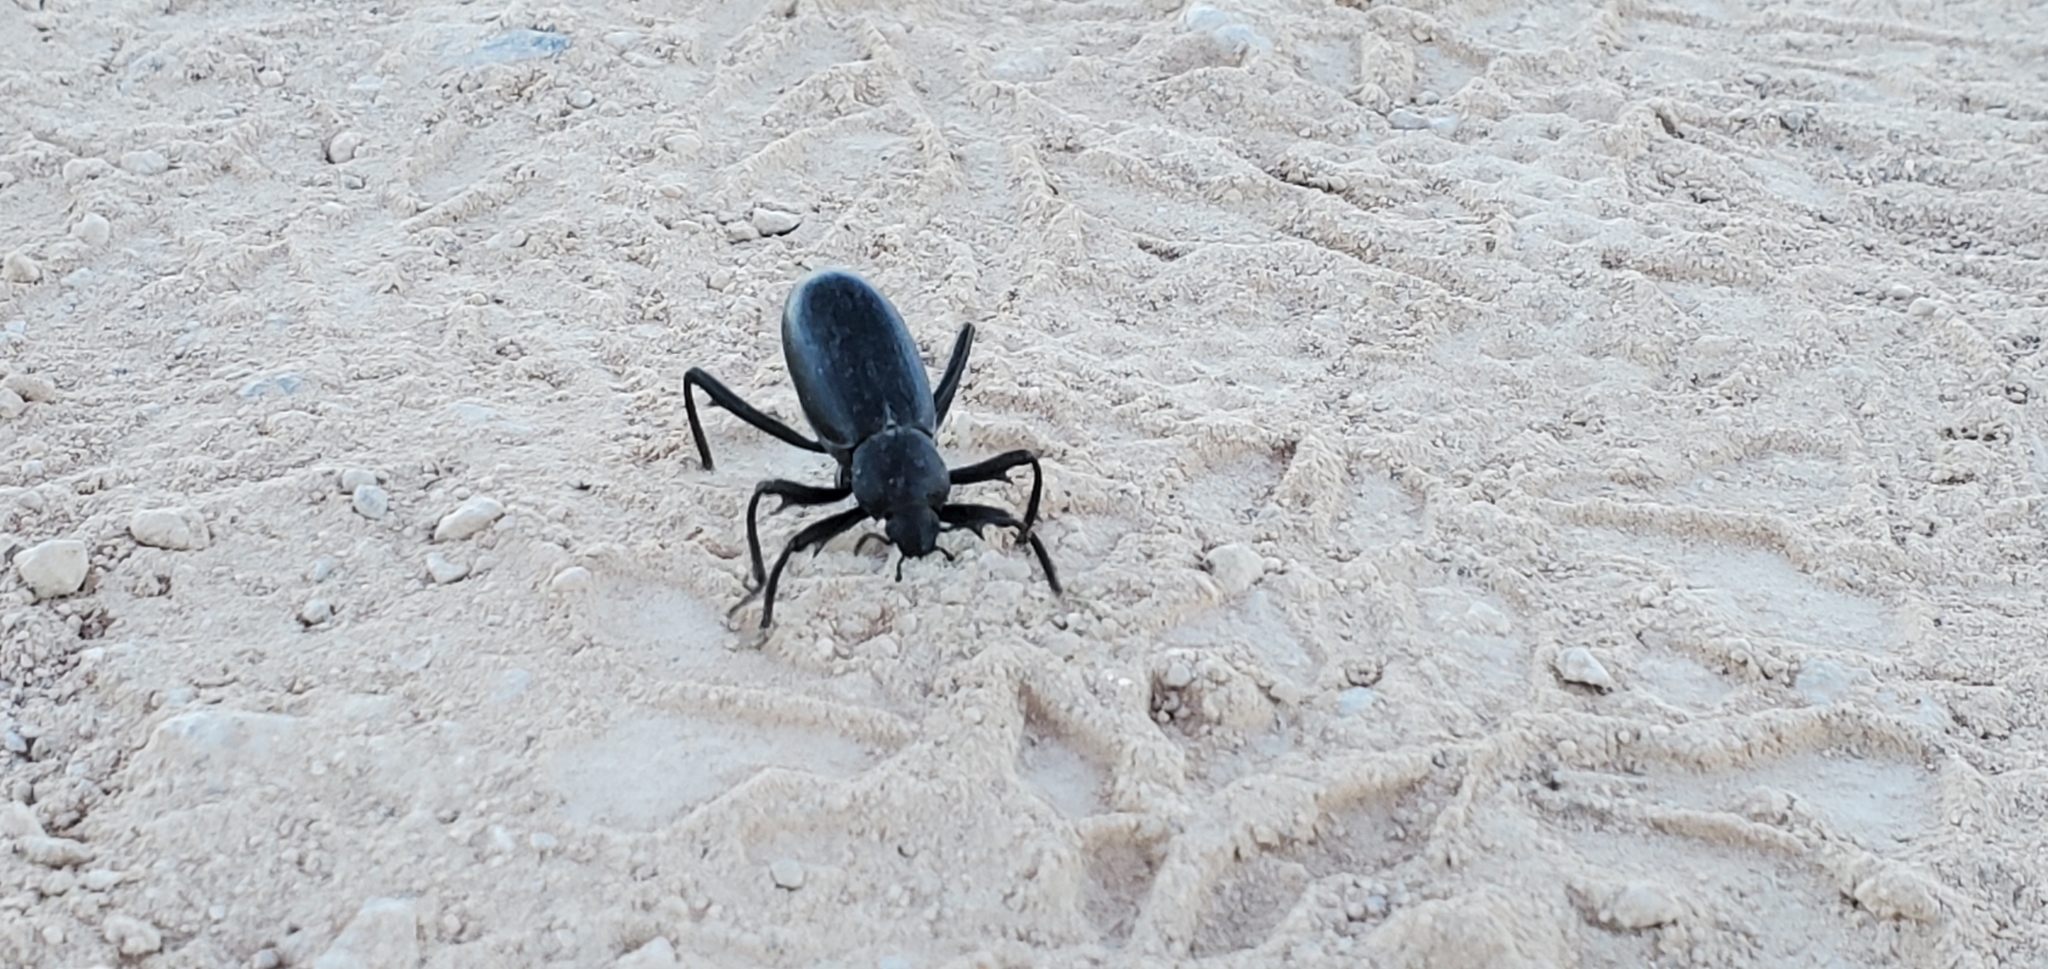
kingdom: Animalia
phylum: Arthropoda
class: Insecta
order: Coleoptera
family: Tenebrionidae
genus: Eleodes
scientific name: Eleodes armata
